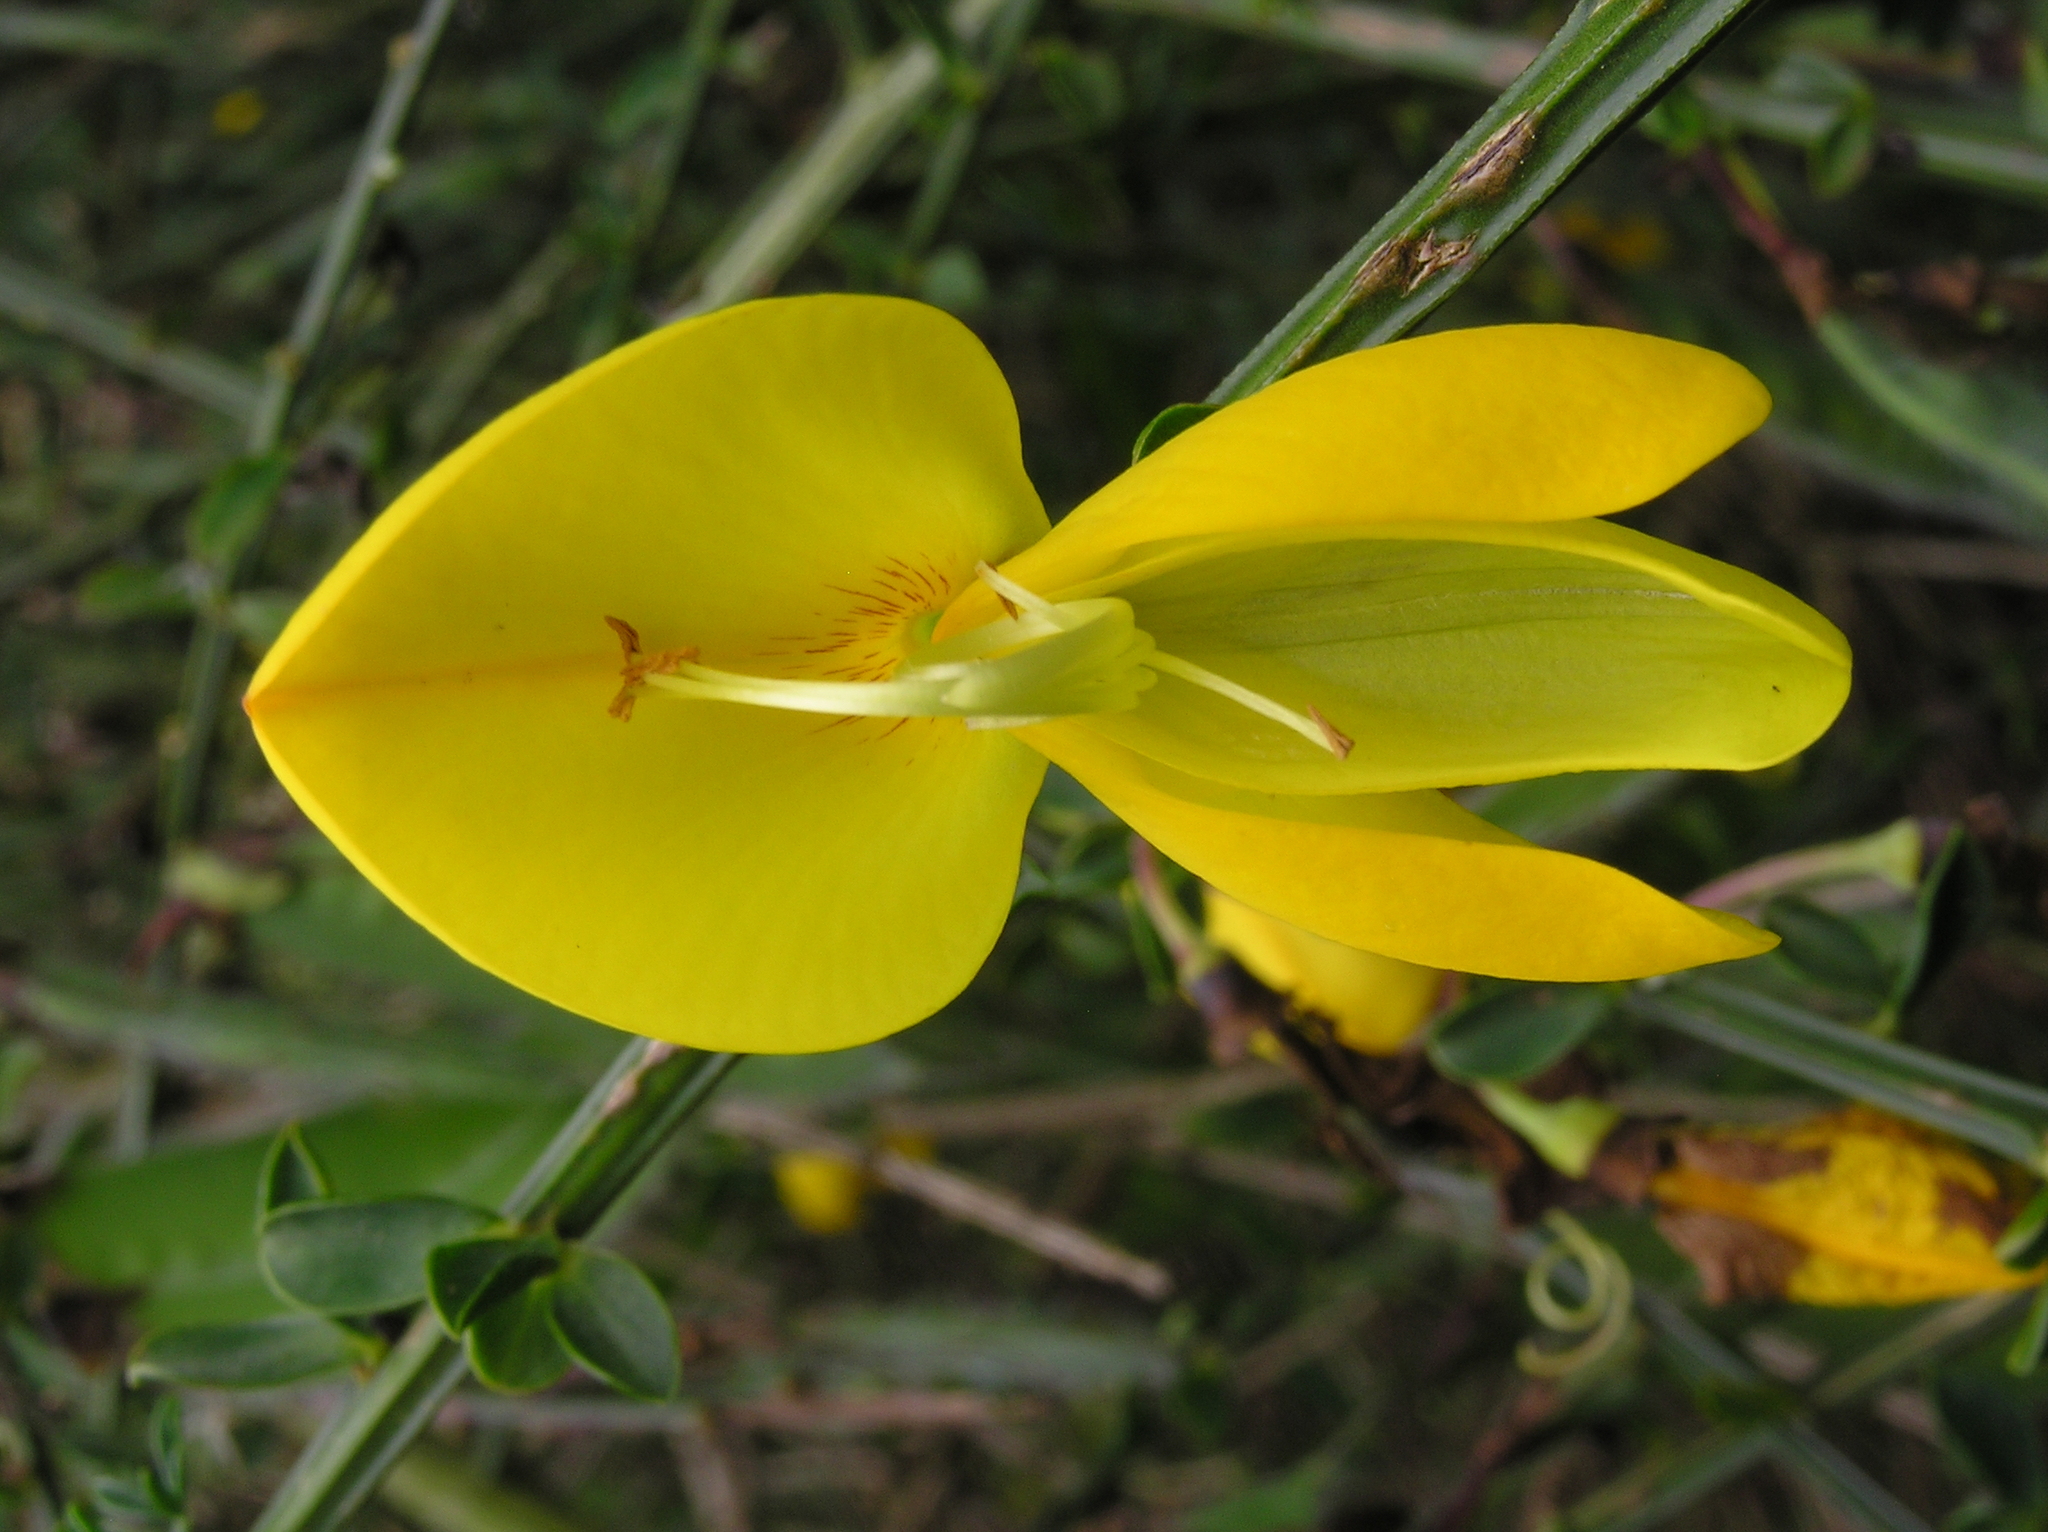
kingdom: Plantae
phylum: Tracheophyta
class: Magnoliopsida
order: Fabales
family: Fabaceae
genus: Cytisus
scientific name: Cytisus scoparius
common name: Scotch broom
